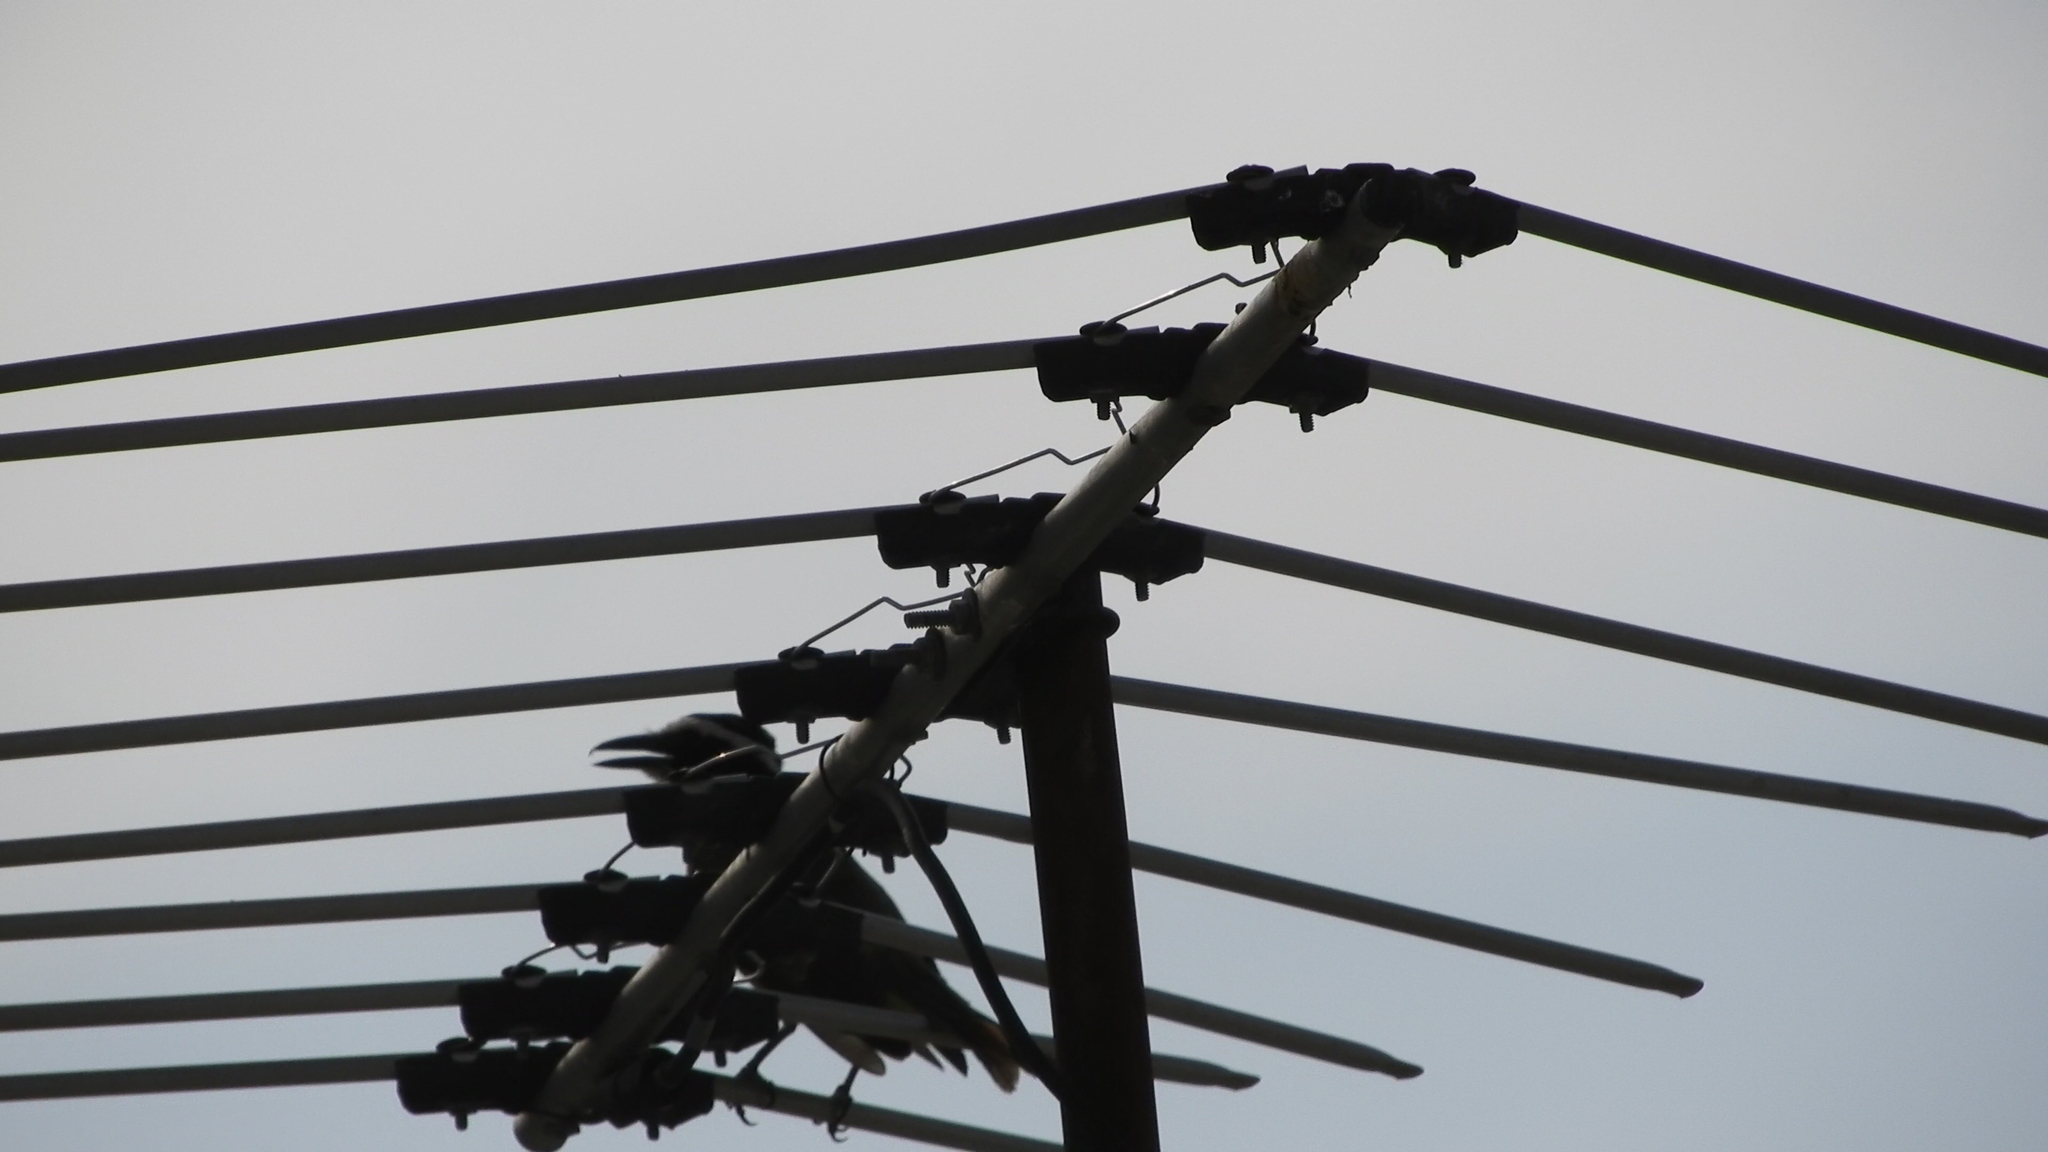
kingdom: Animalia
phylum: Chordata
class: Aves
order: Passeriformes
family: Tyrannidae
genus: Pitangus
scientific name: Pitangus sulphuratus
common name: Great kiskadee
